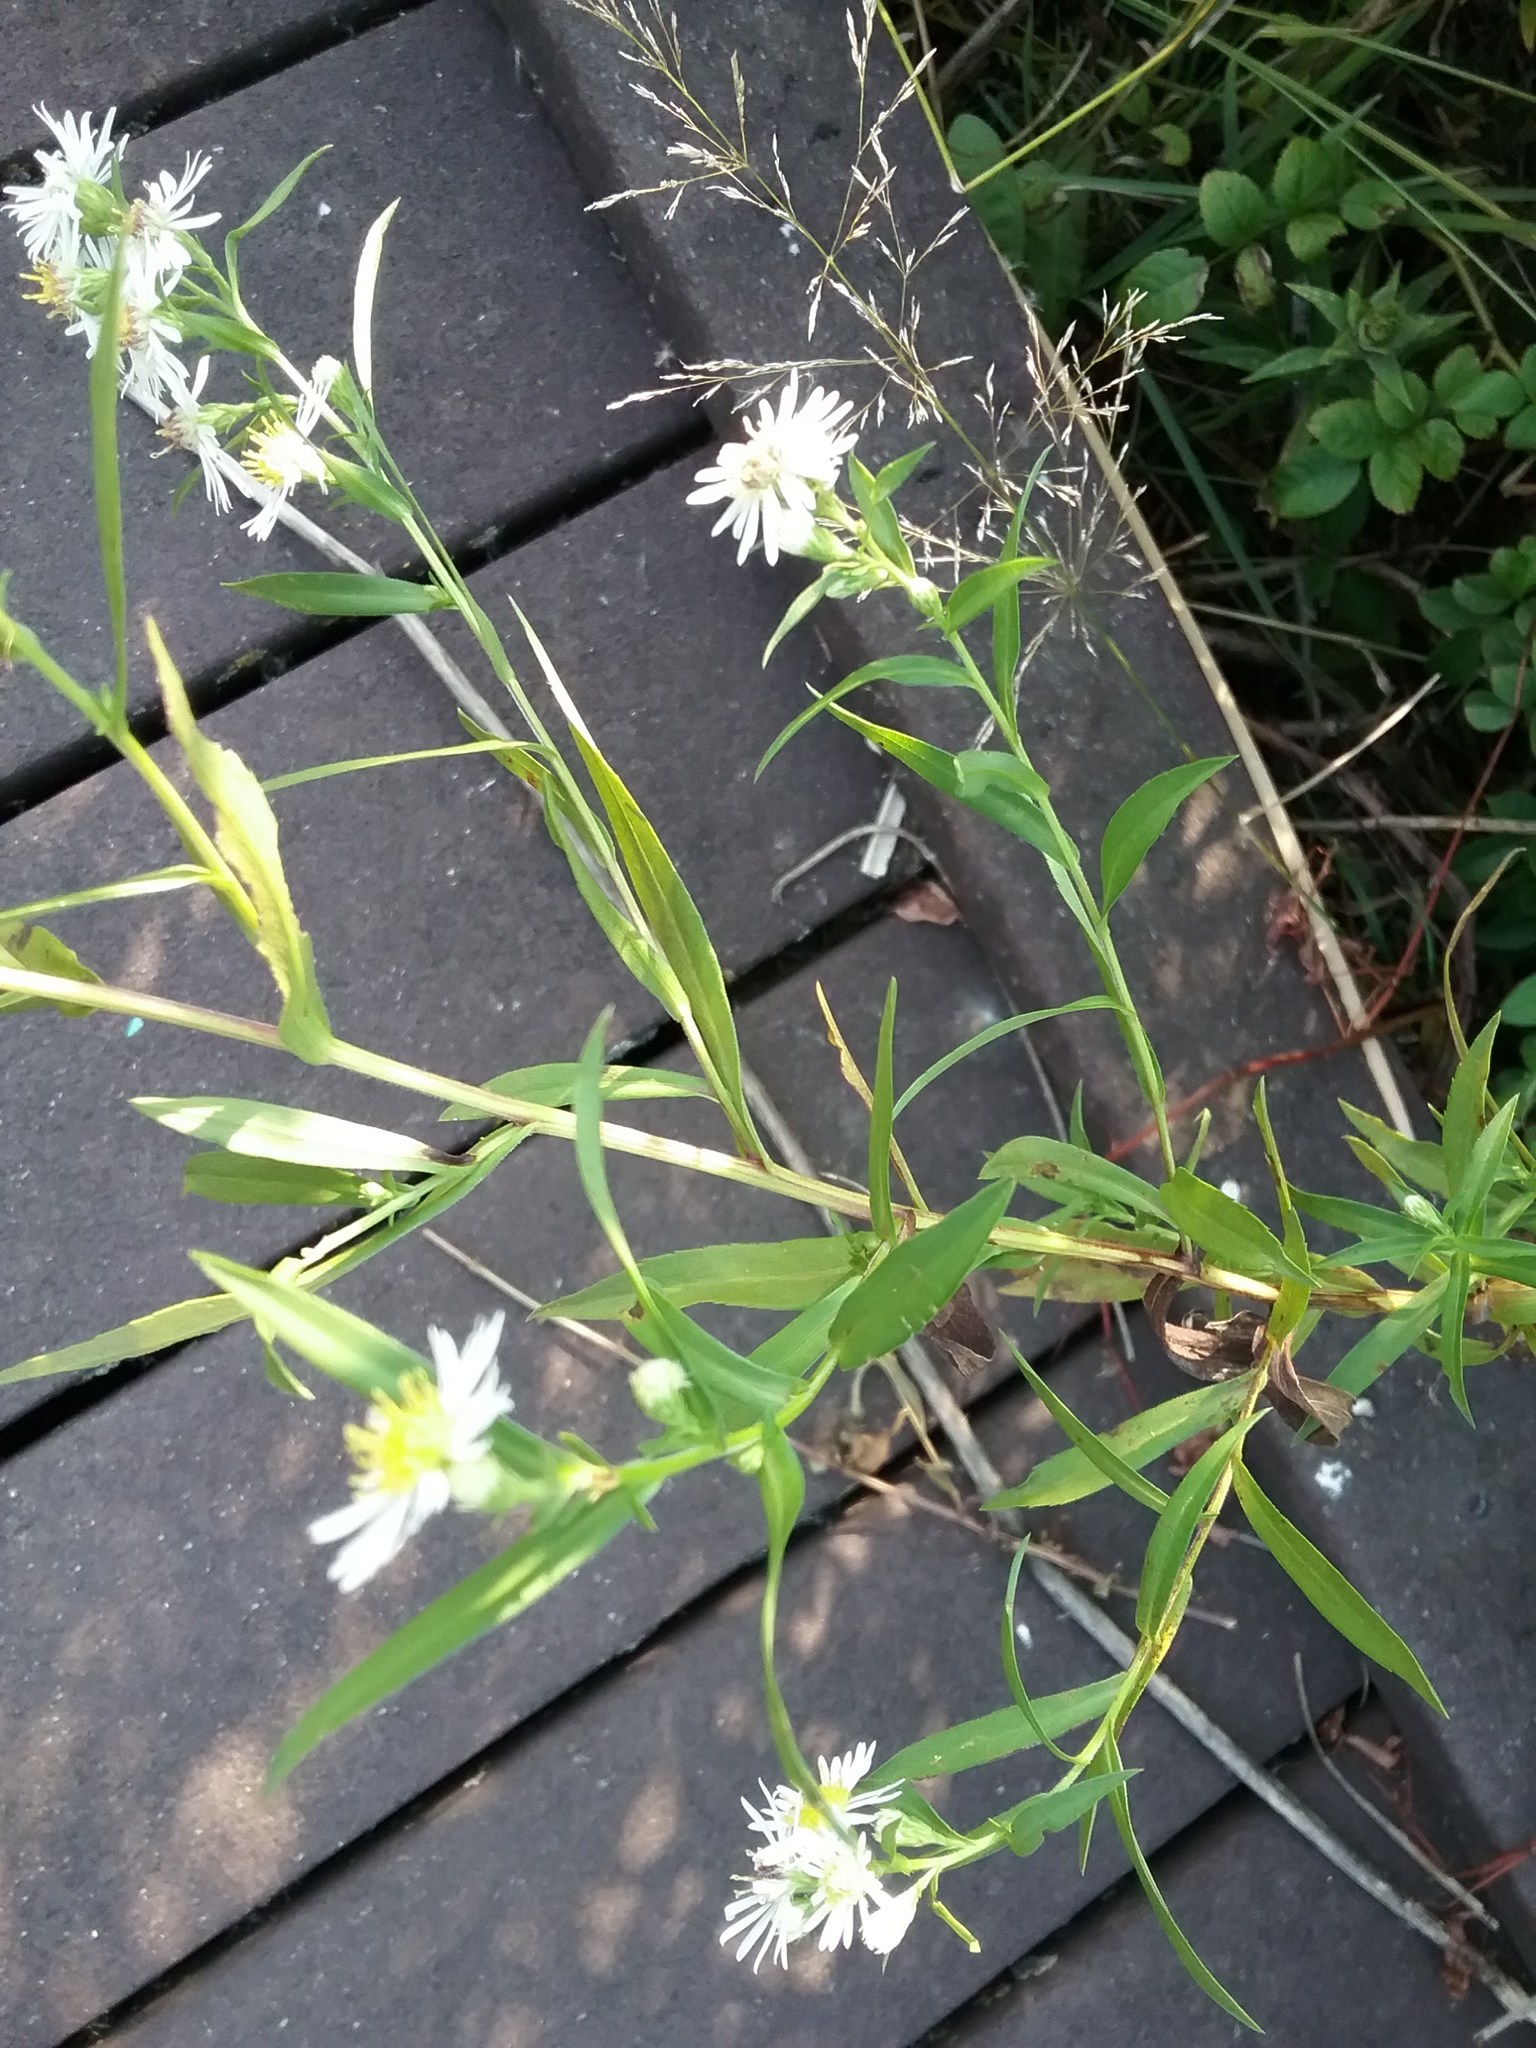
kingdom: Plantae
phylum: Tracheophyta
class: Magnoliopsida
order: Asterales
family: Asteraceae
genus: Symphyotrichum
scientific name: Symphyotrichum lanceolatum
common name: Panicled aster
